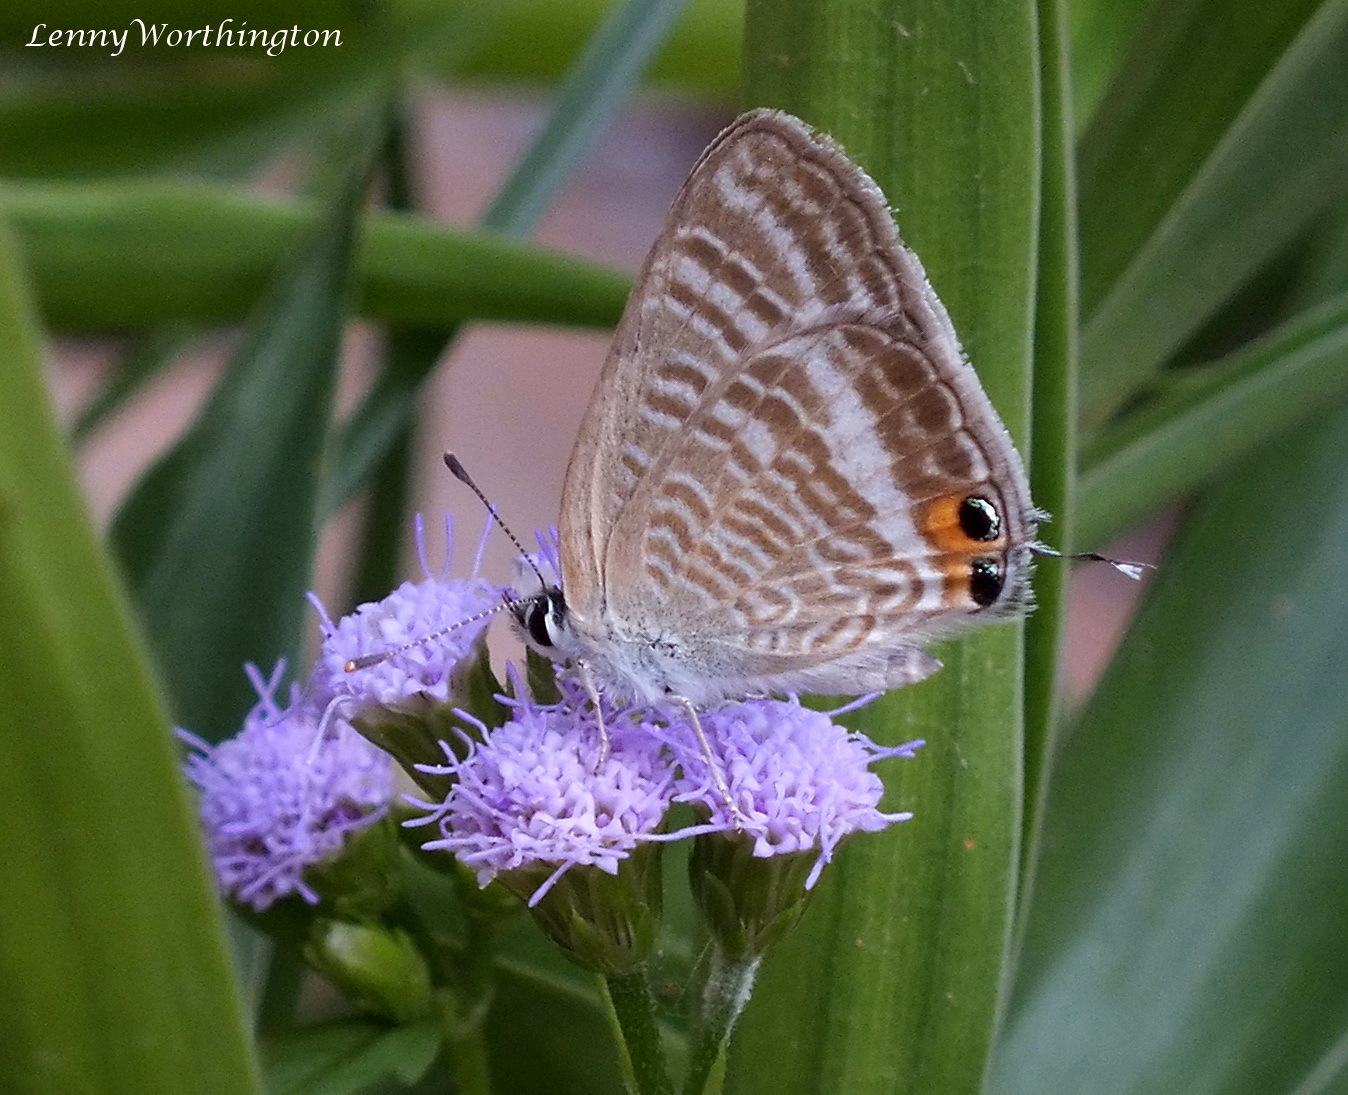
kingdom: Animalia
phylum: Arthropoda
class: Insecta
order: Lepidoptera
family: Lycaenidae
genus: Lampides
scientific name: Lampides boeticus
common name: Long-tailed blue
